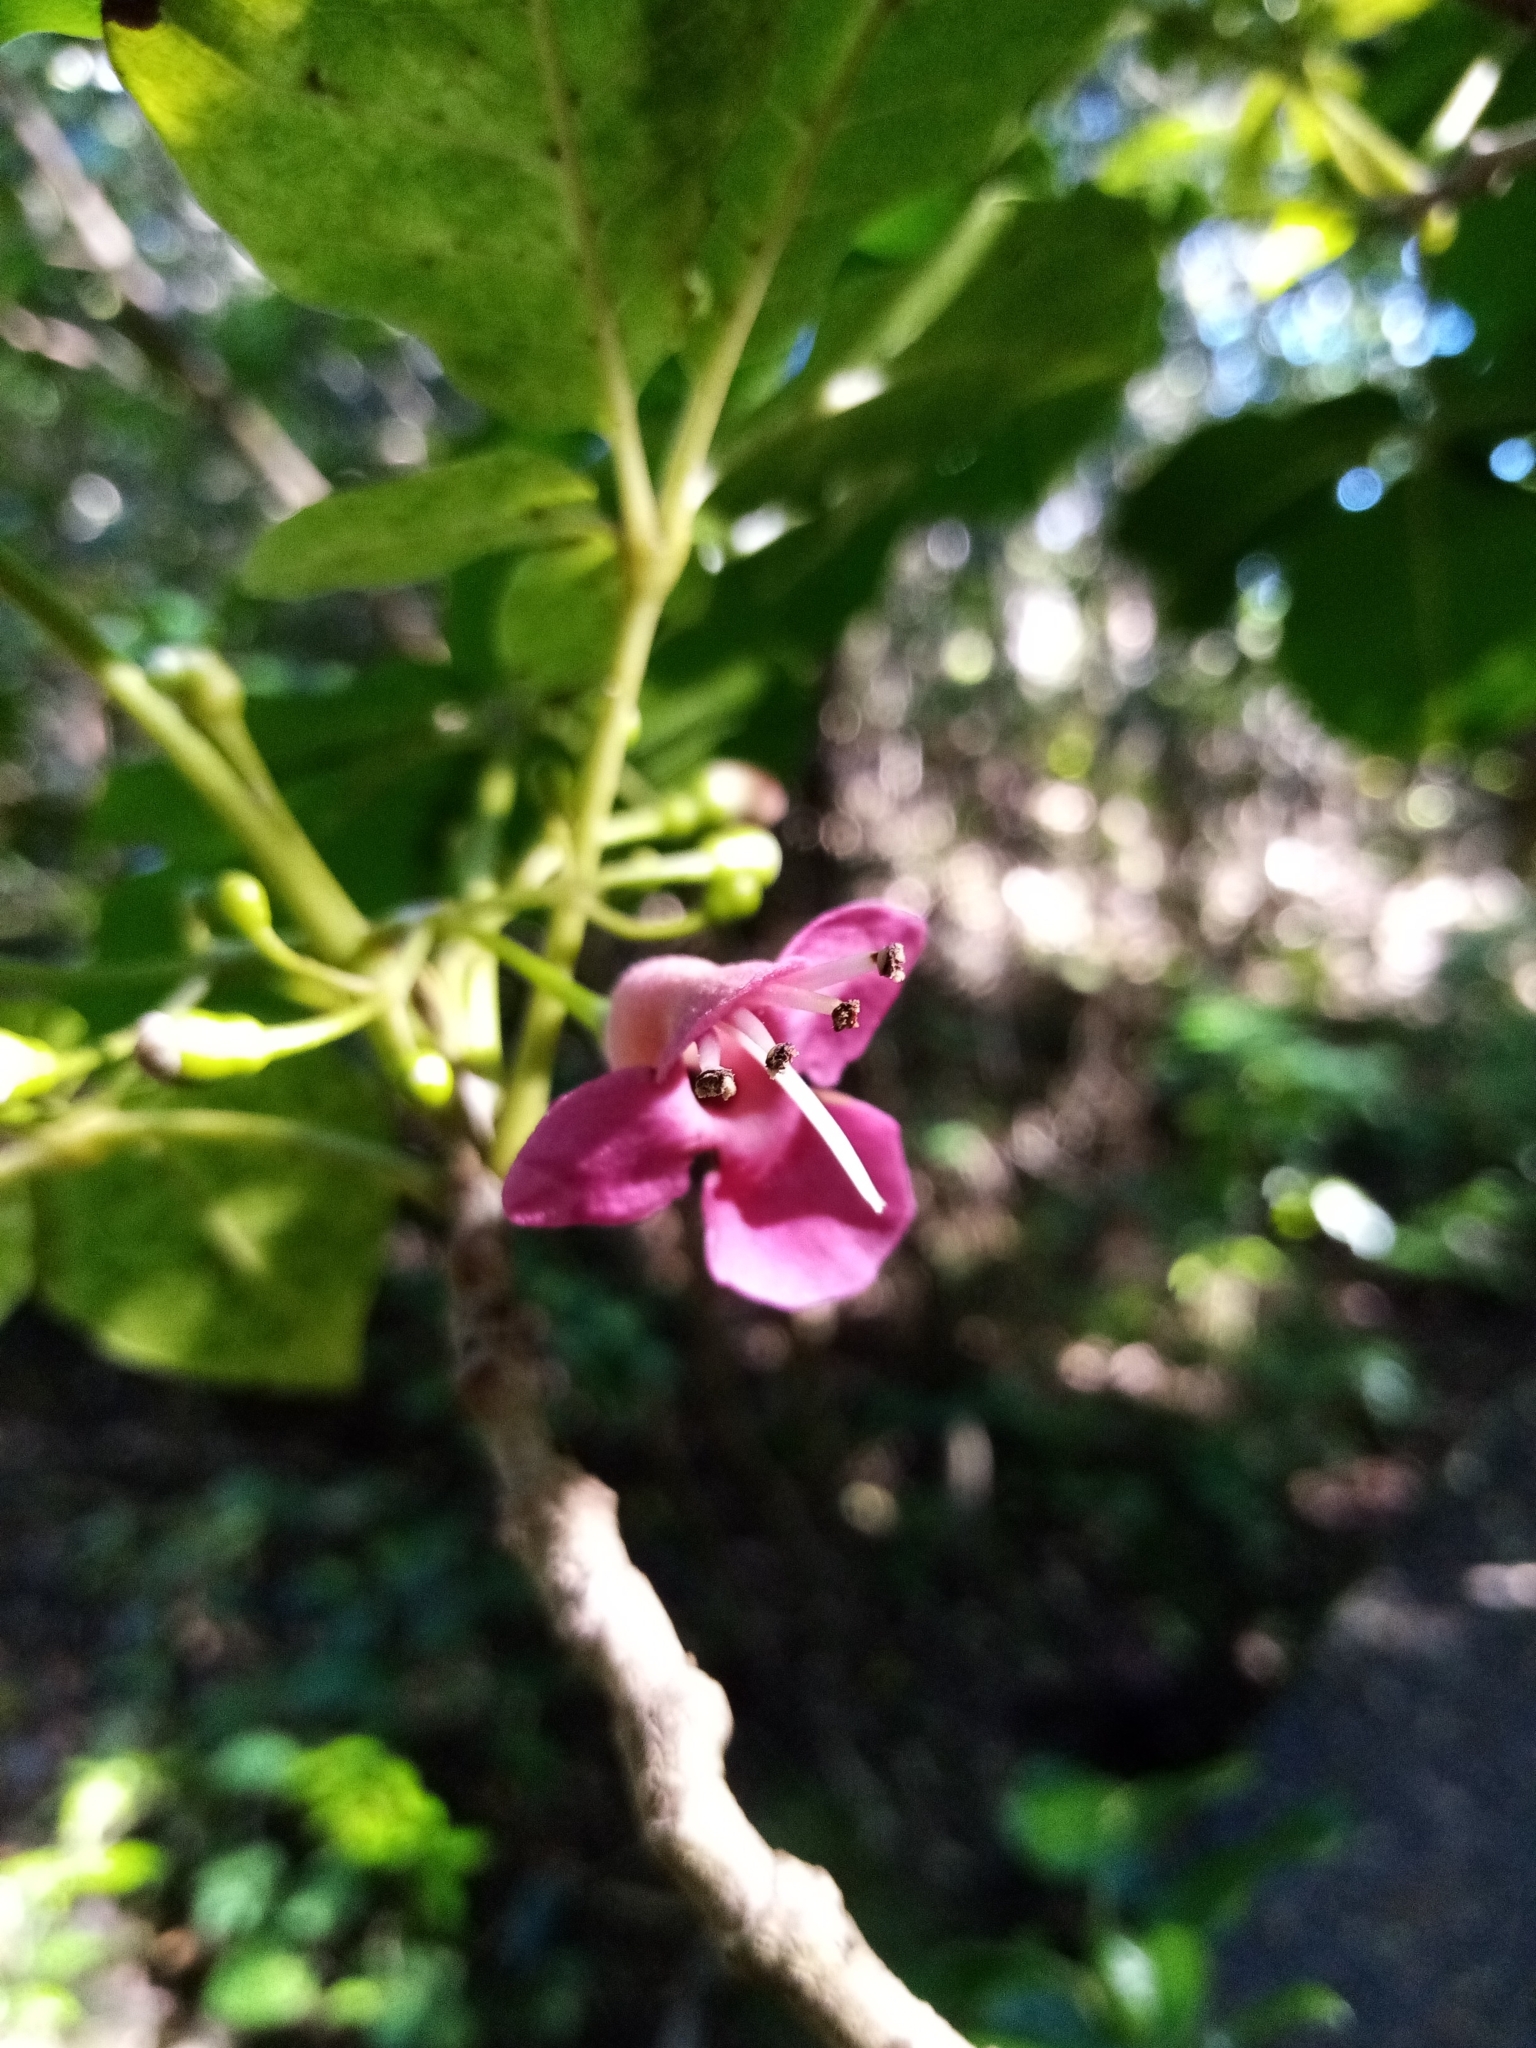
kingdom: Plantae
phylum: Tracheophyta
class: Magnoliopsida
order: Lamiales
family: Lamiaceae
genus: Vitex
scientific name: Vitex lucens
